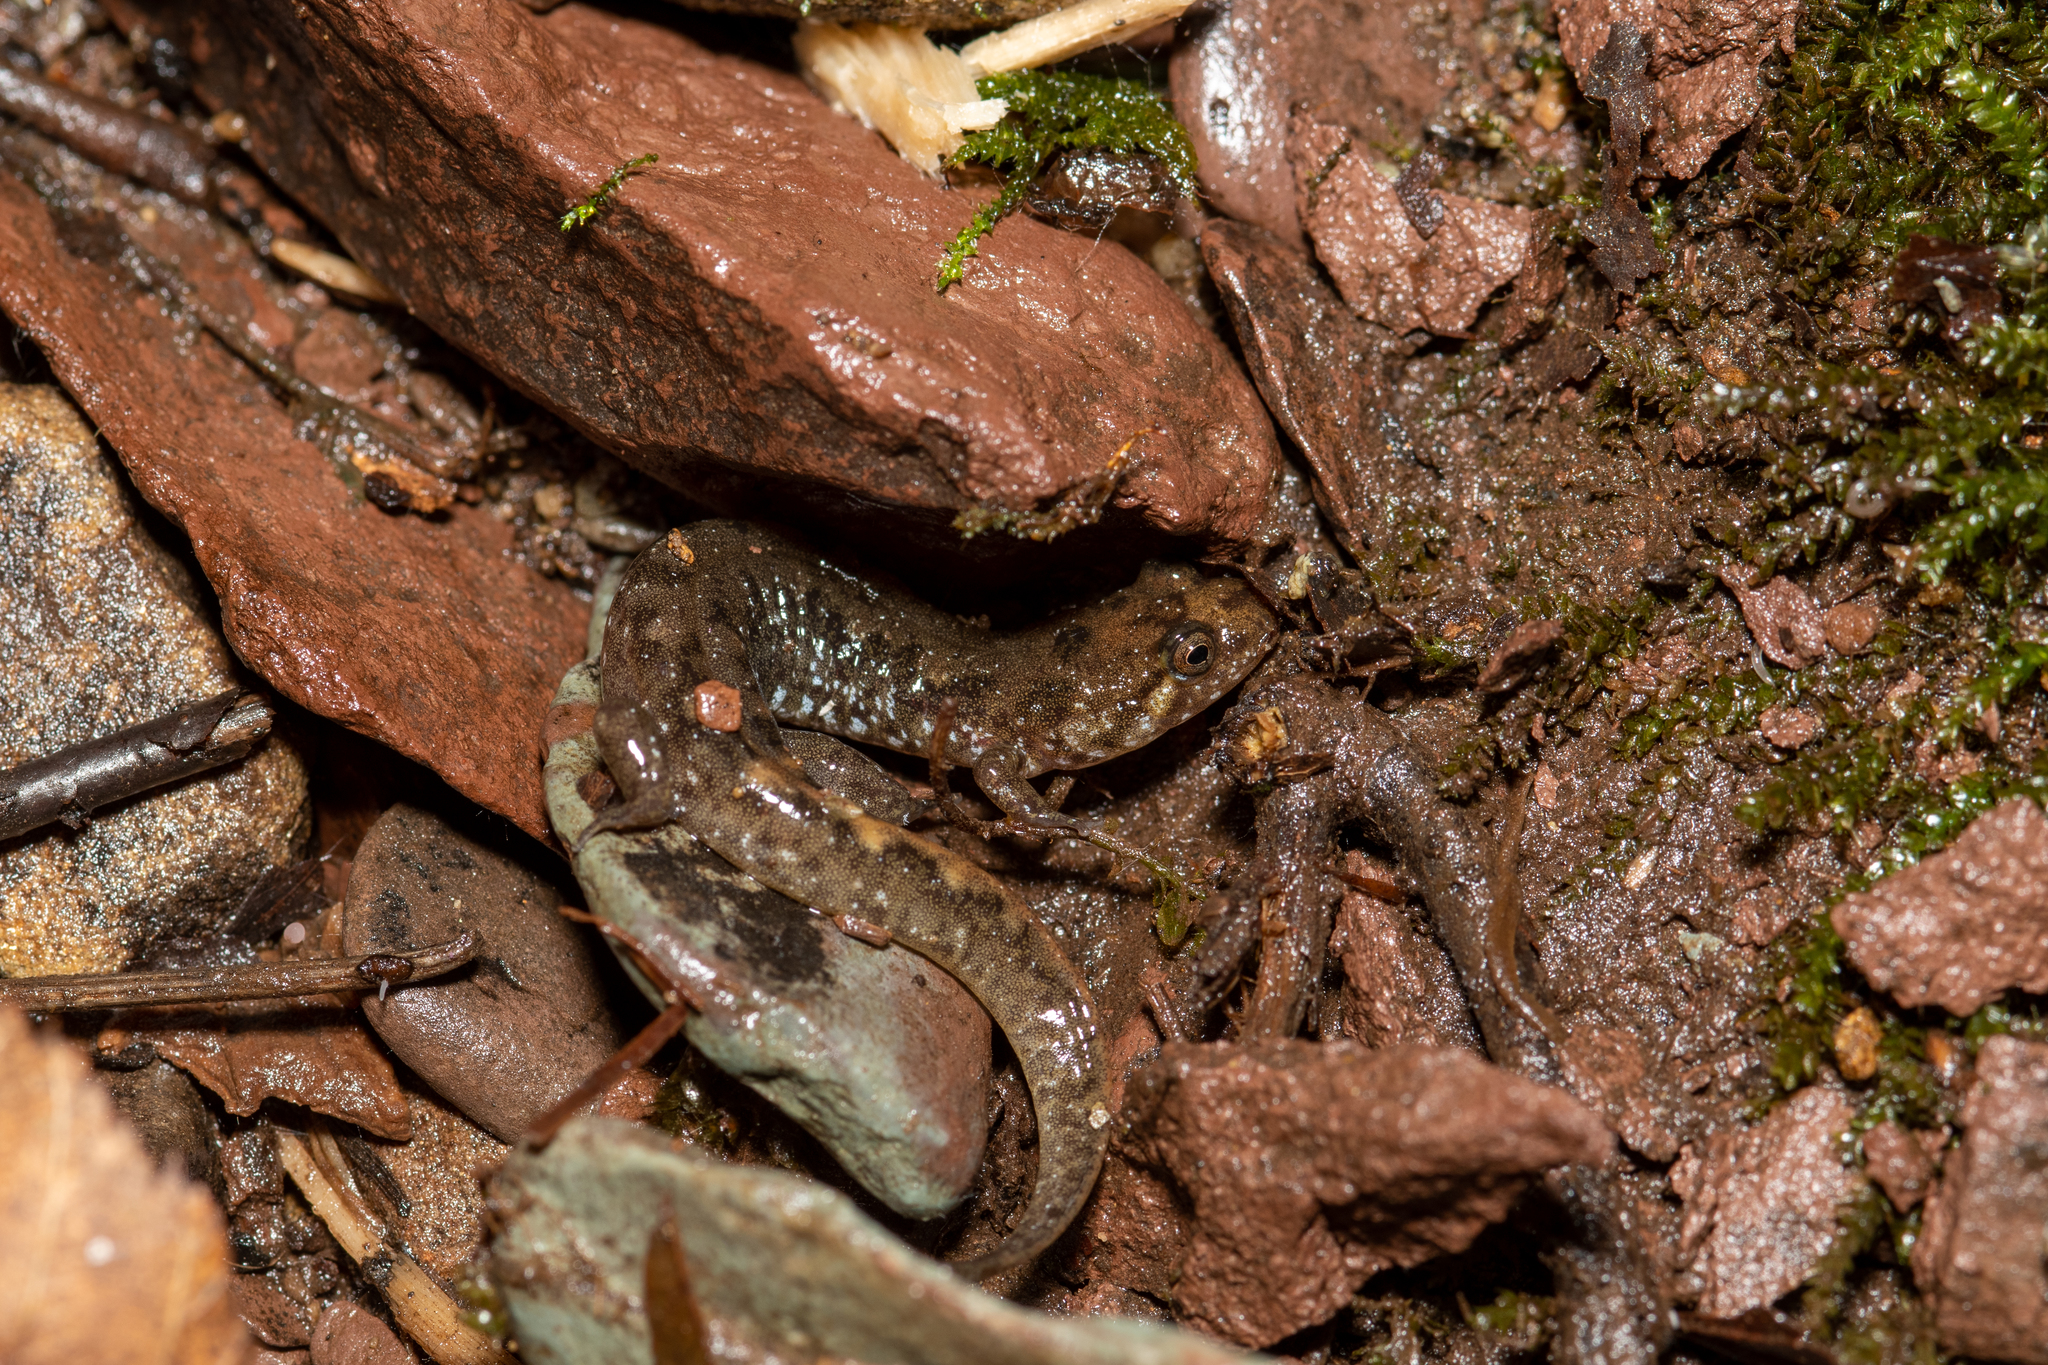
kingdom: Animalia
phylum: Chordata
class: Amphibia
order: Caudata
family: Plethodontidae
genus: Desmognathus
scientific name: Desmognathus monticola
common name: Seal salamander
